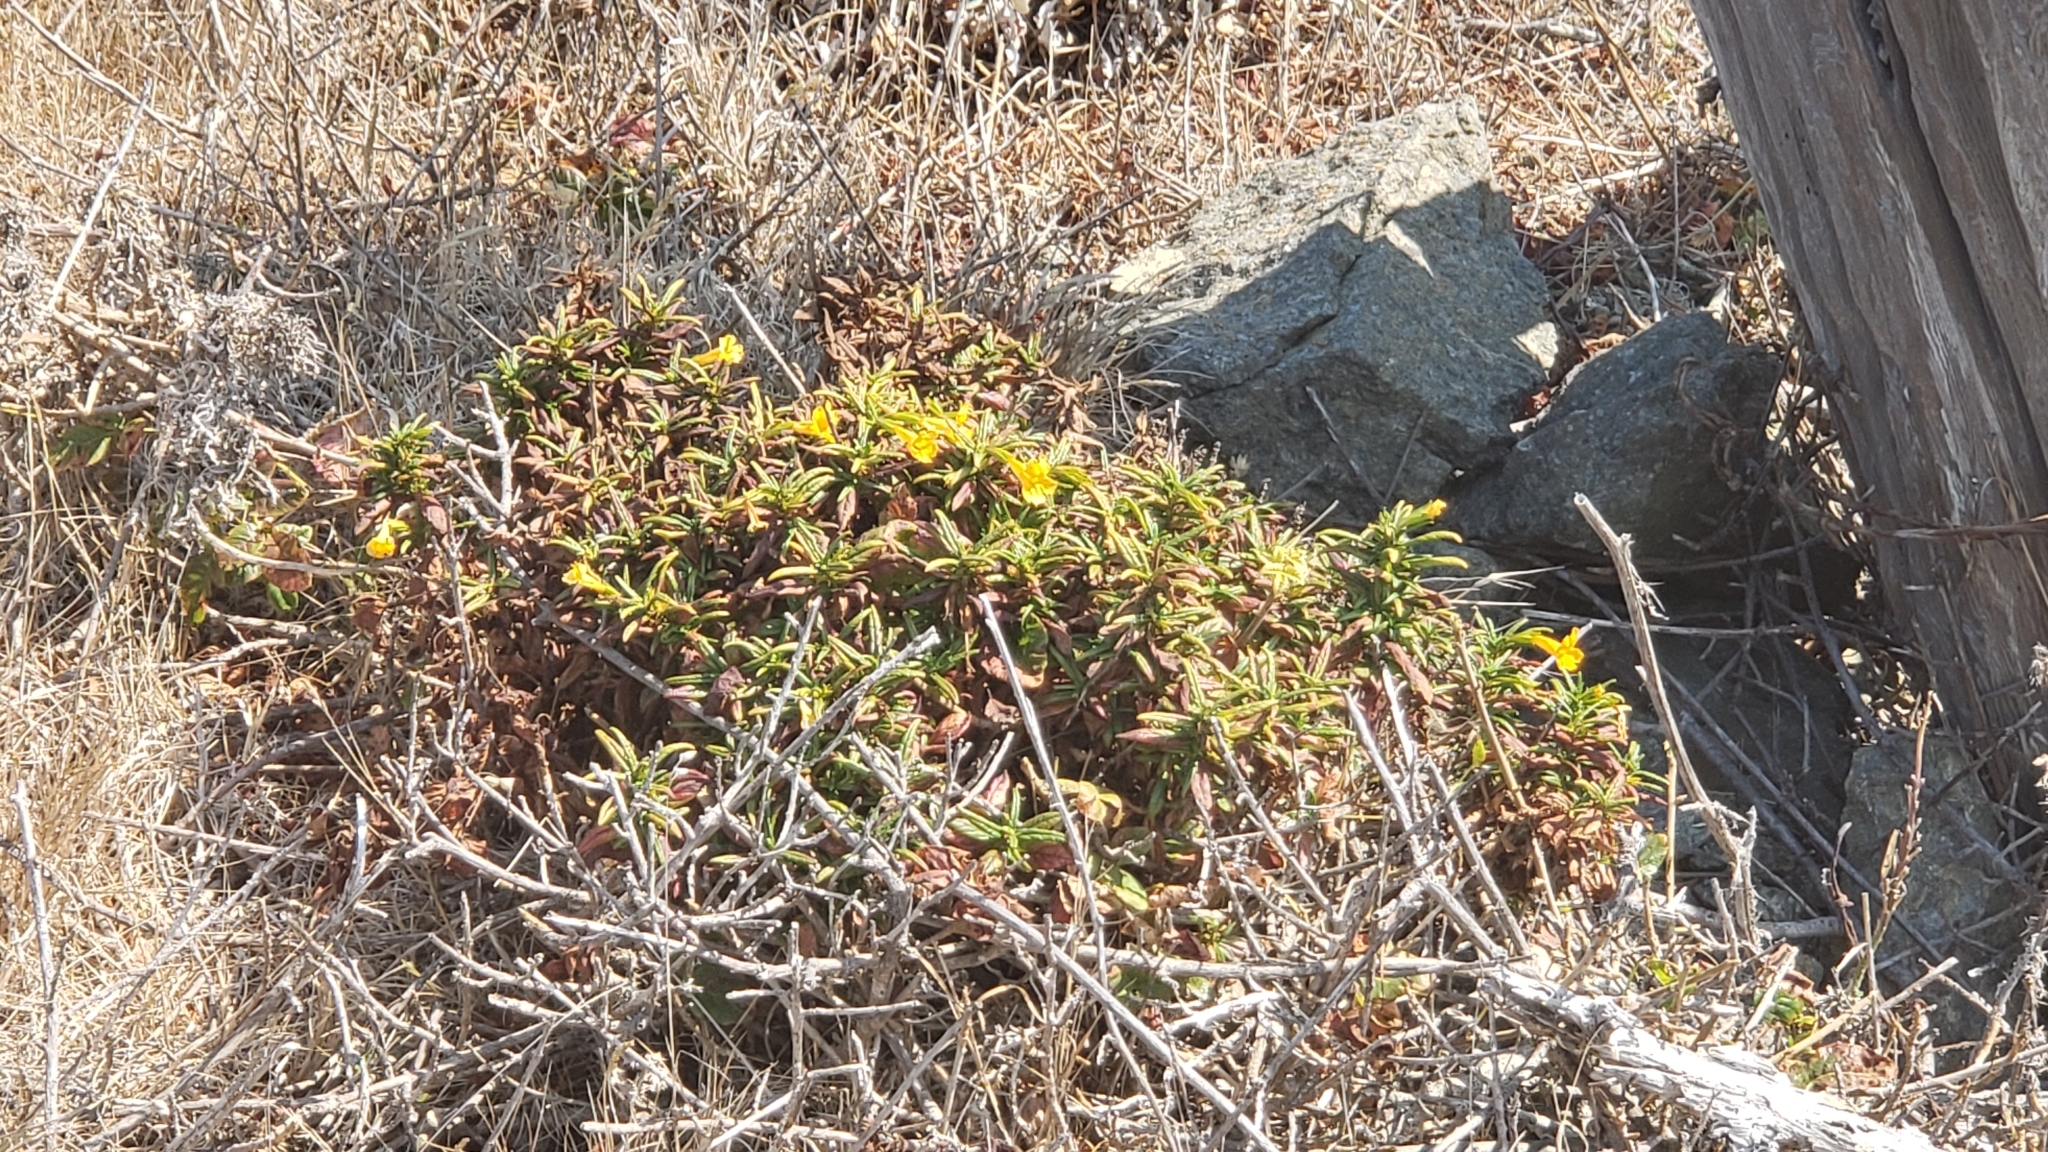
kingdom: Plantae
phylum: Tracheophyta
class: Magnoliopsida
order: Lamiales
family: Phrymaceae
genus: Diplacus
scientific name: Diplacus aurantiacus
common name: Bush monkey-flower
